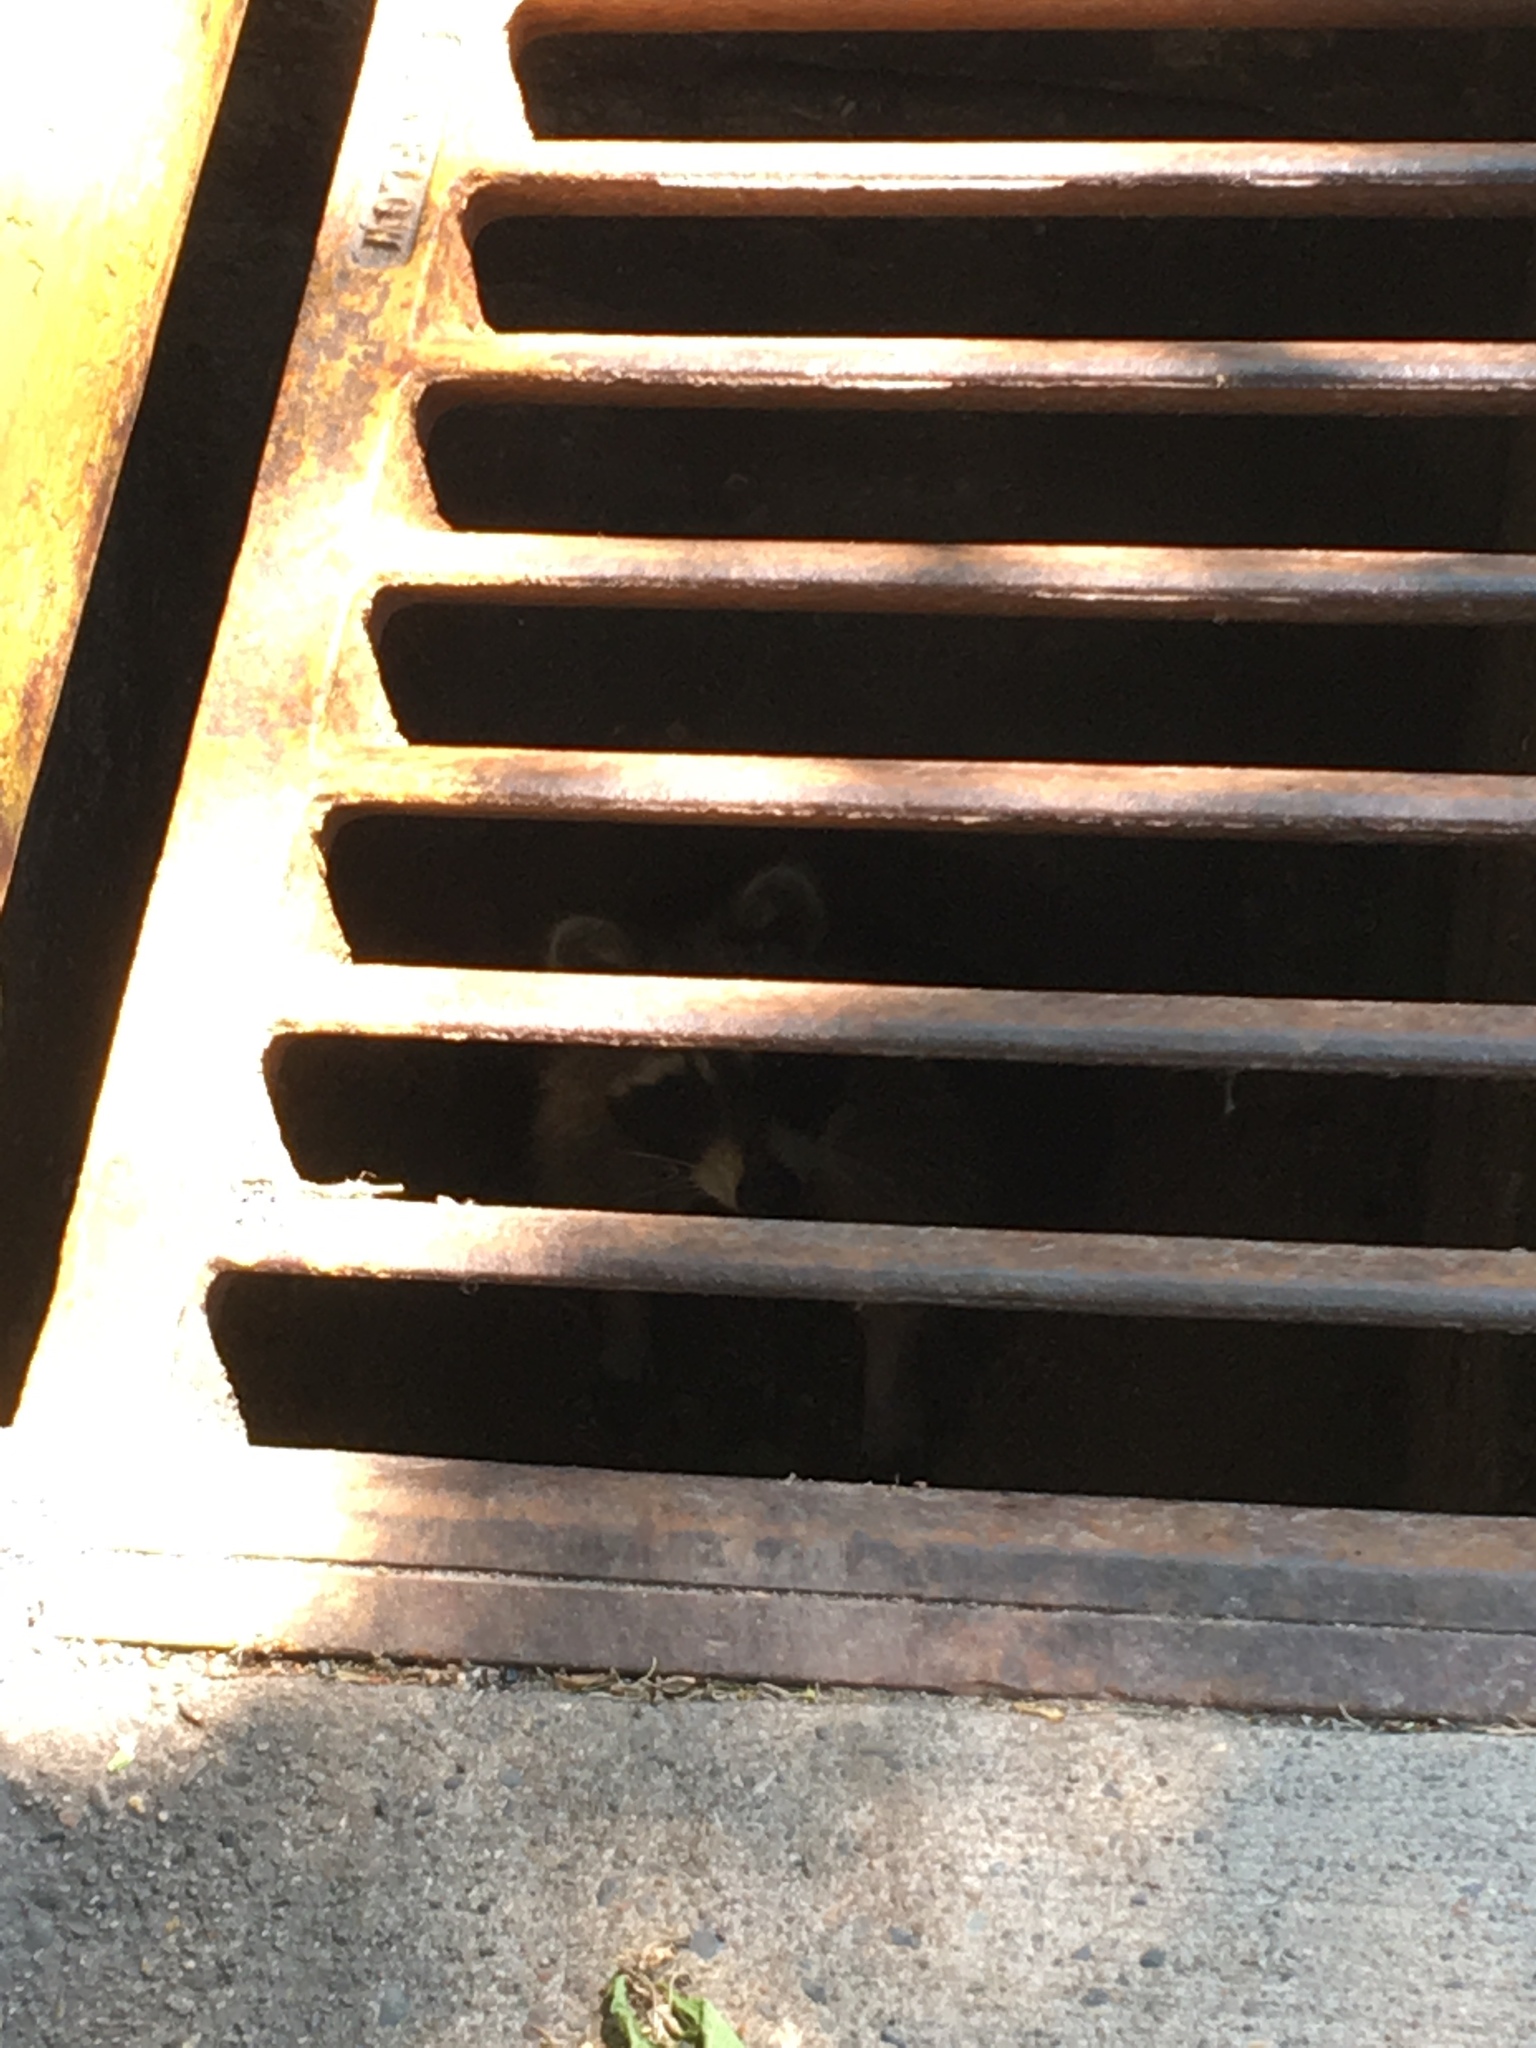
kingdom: Animalia
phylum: Chordata
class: Mammalia
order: Carnivora
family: Procyonidae
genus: Procyon
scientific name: Procyon lotor
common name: Raccoon
